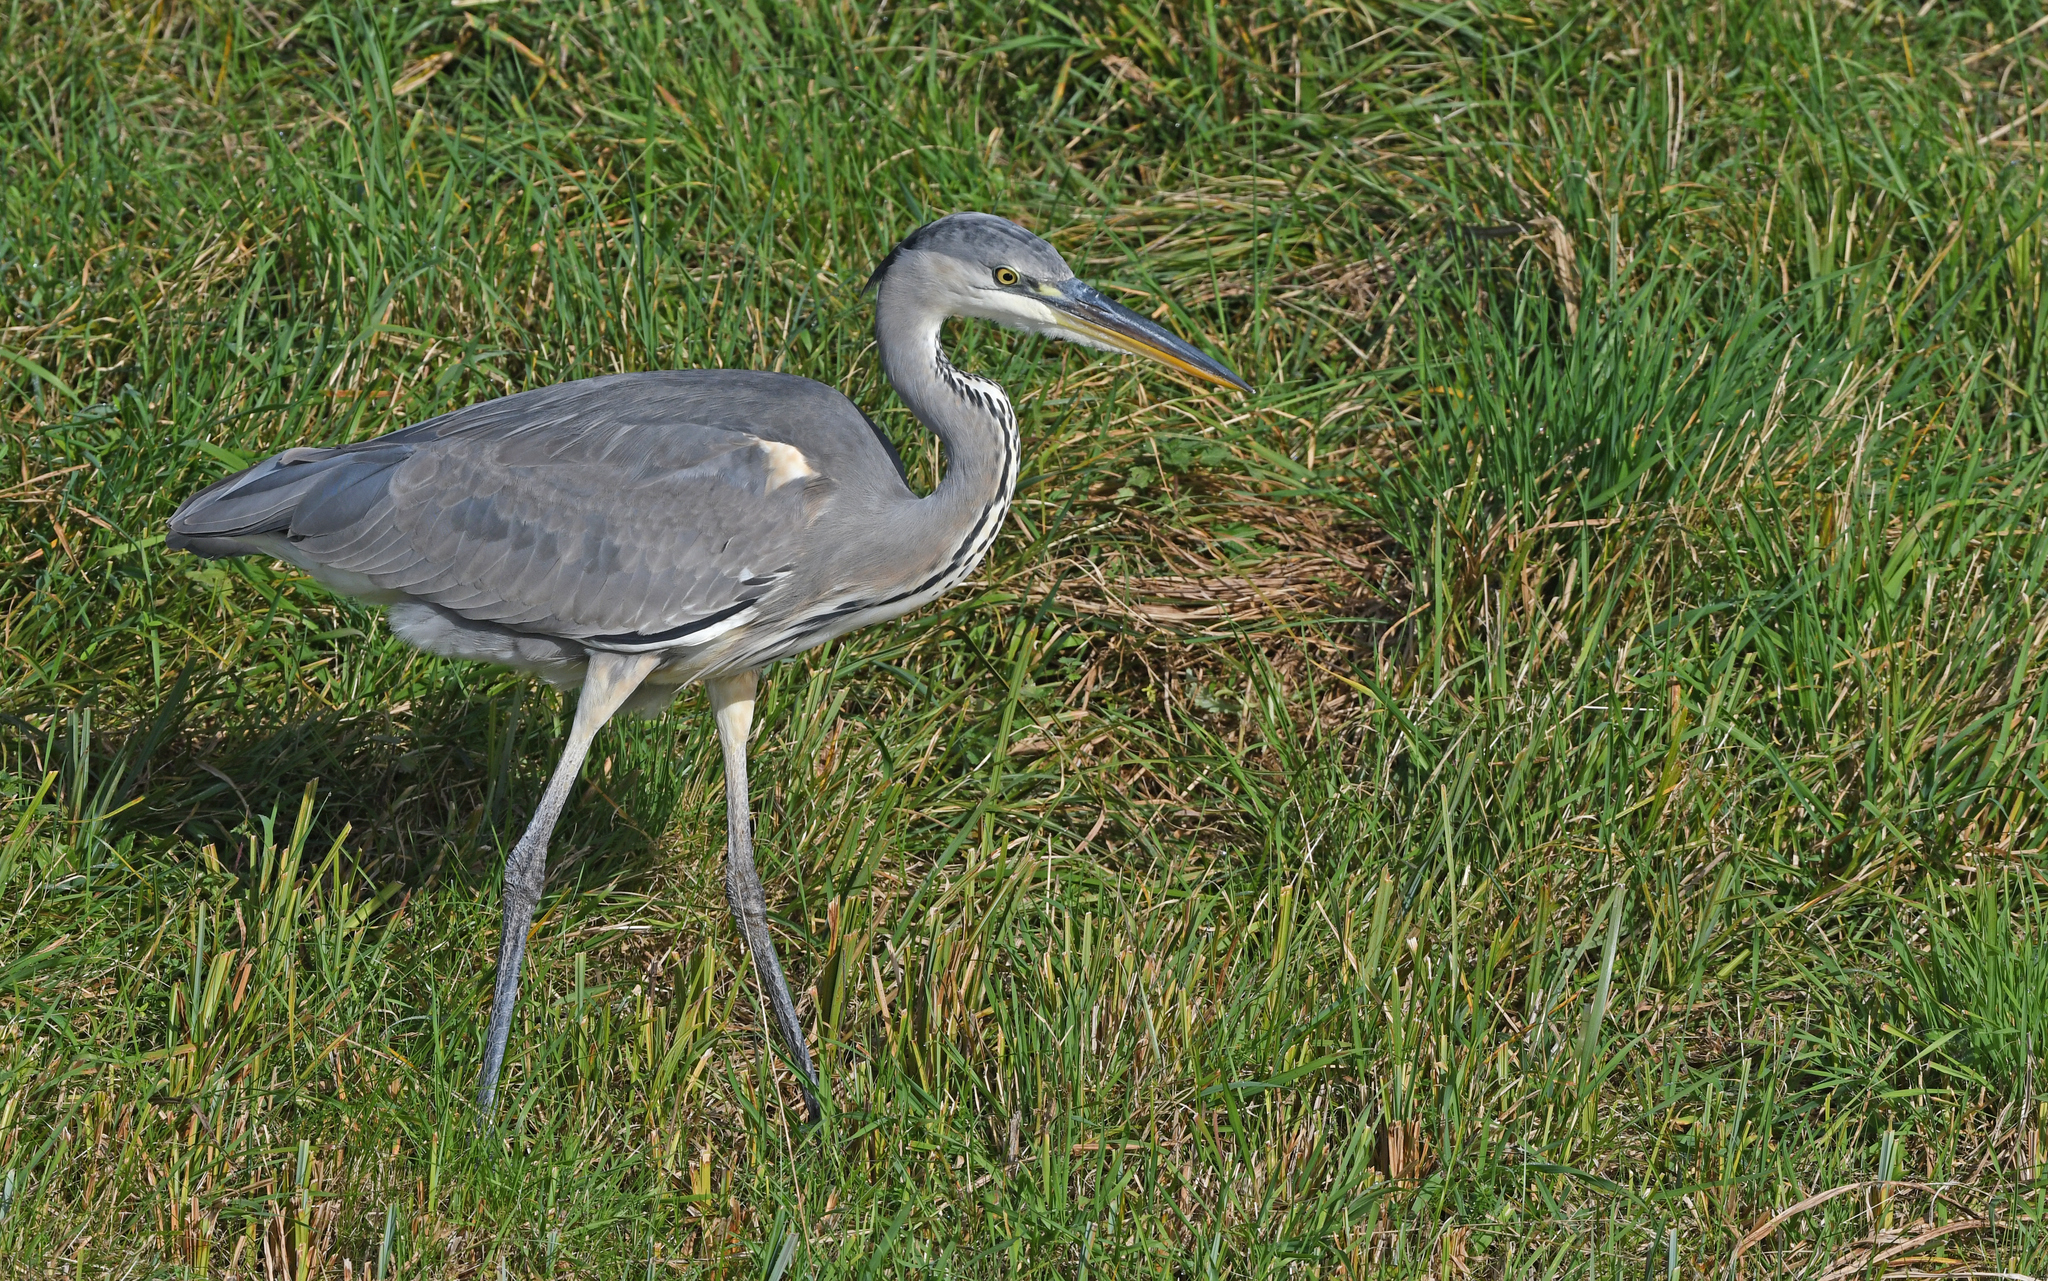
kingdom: Animalia
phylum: Chordata
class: Aves
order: Pelecaniformes
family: Ardeidae
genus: Ardea
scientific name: Ardea cinerea
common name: Grey heron
